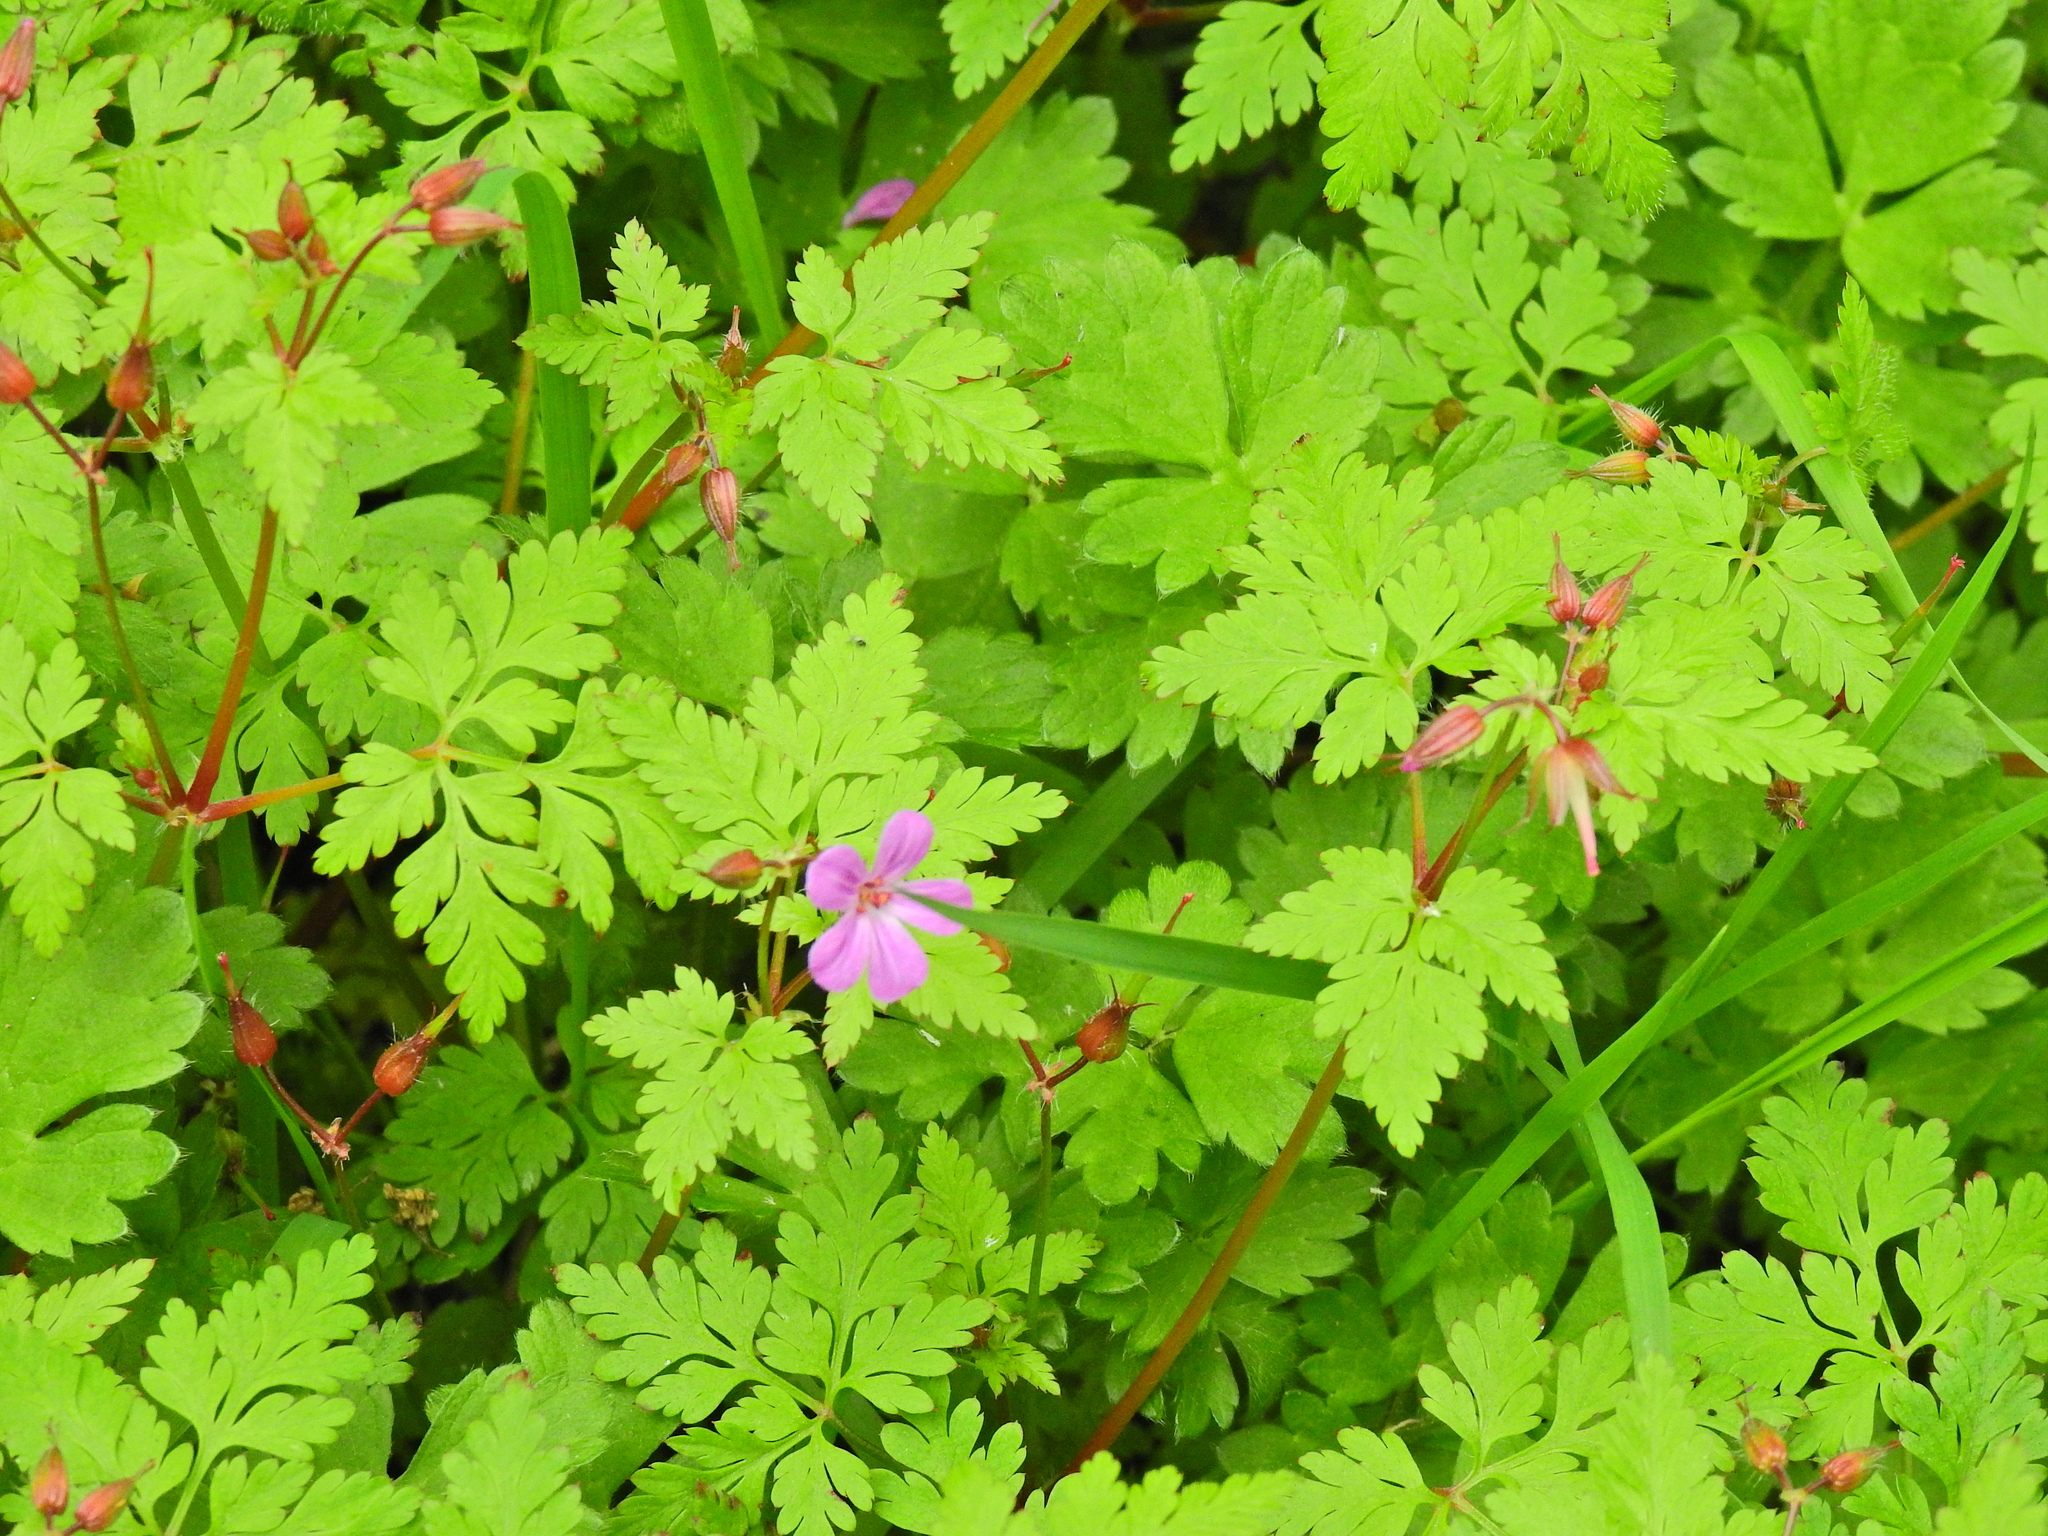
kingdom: Plantae
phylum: Tracheophyta
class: Magnoliopsida
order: Geraniales
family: Geraniaceae
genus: Geranium
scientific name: Geranium robertianum
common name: Herb-robert
